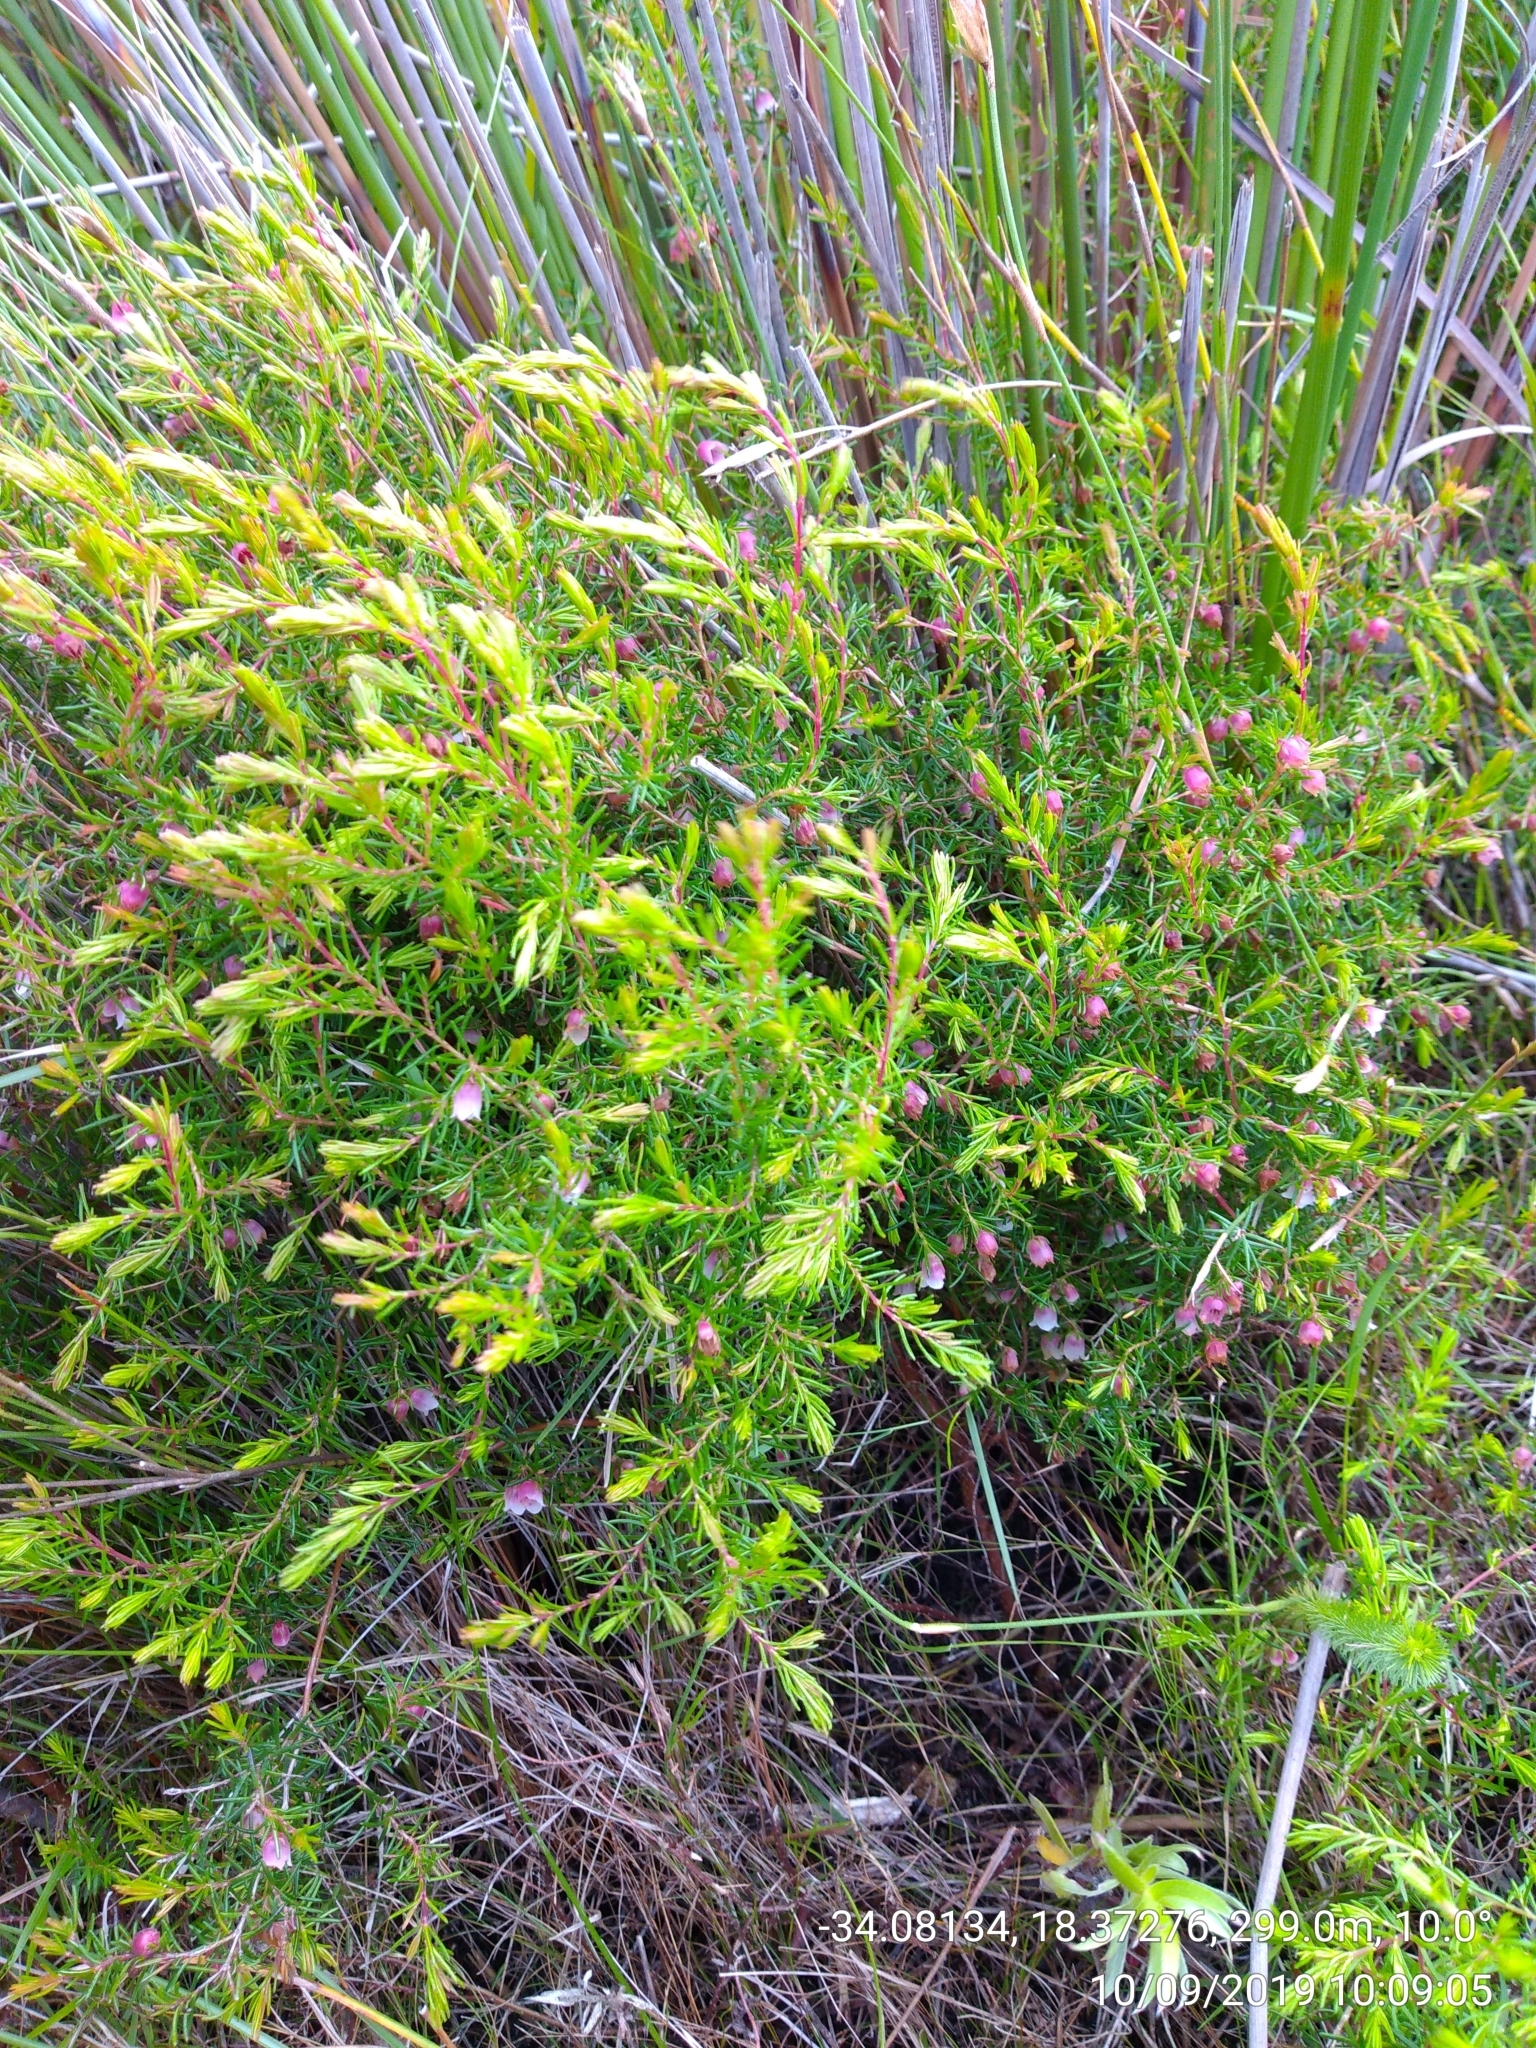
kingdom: Plantae
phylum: Tracheophyta
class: Magnoliopsida
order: Ericales
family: Ericaceae
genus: Erica
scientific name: Erica paludicola
